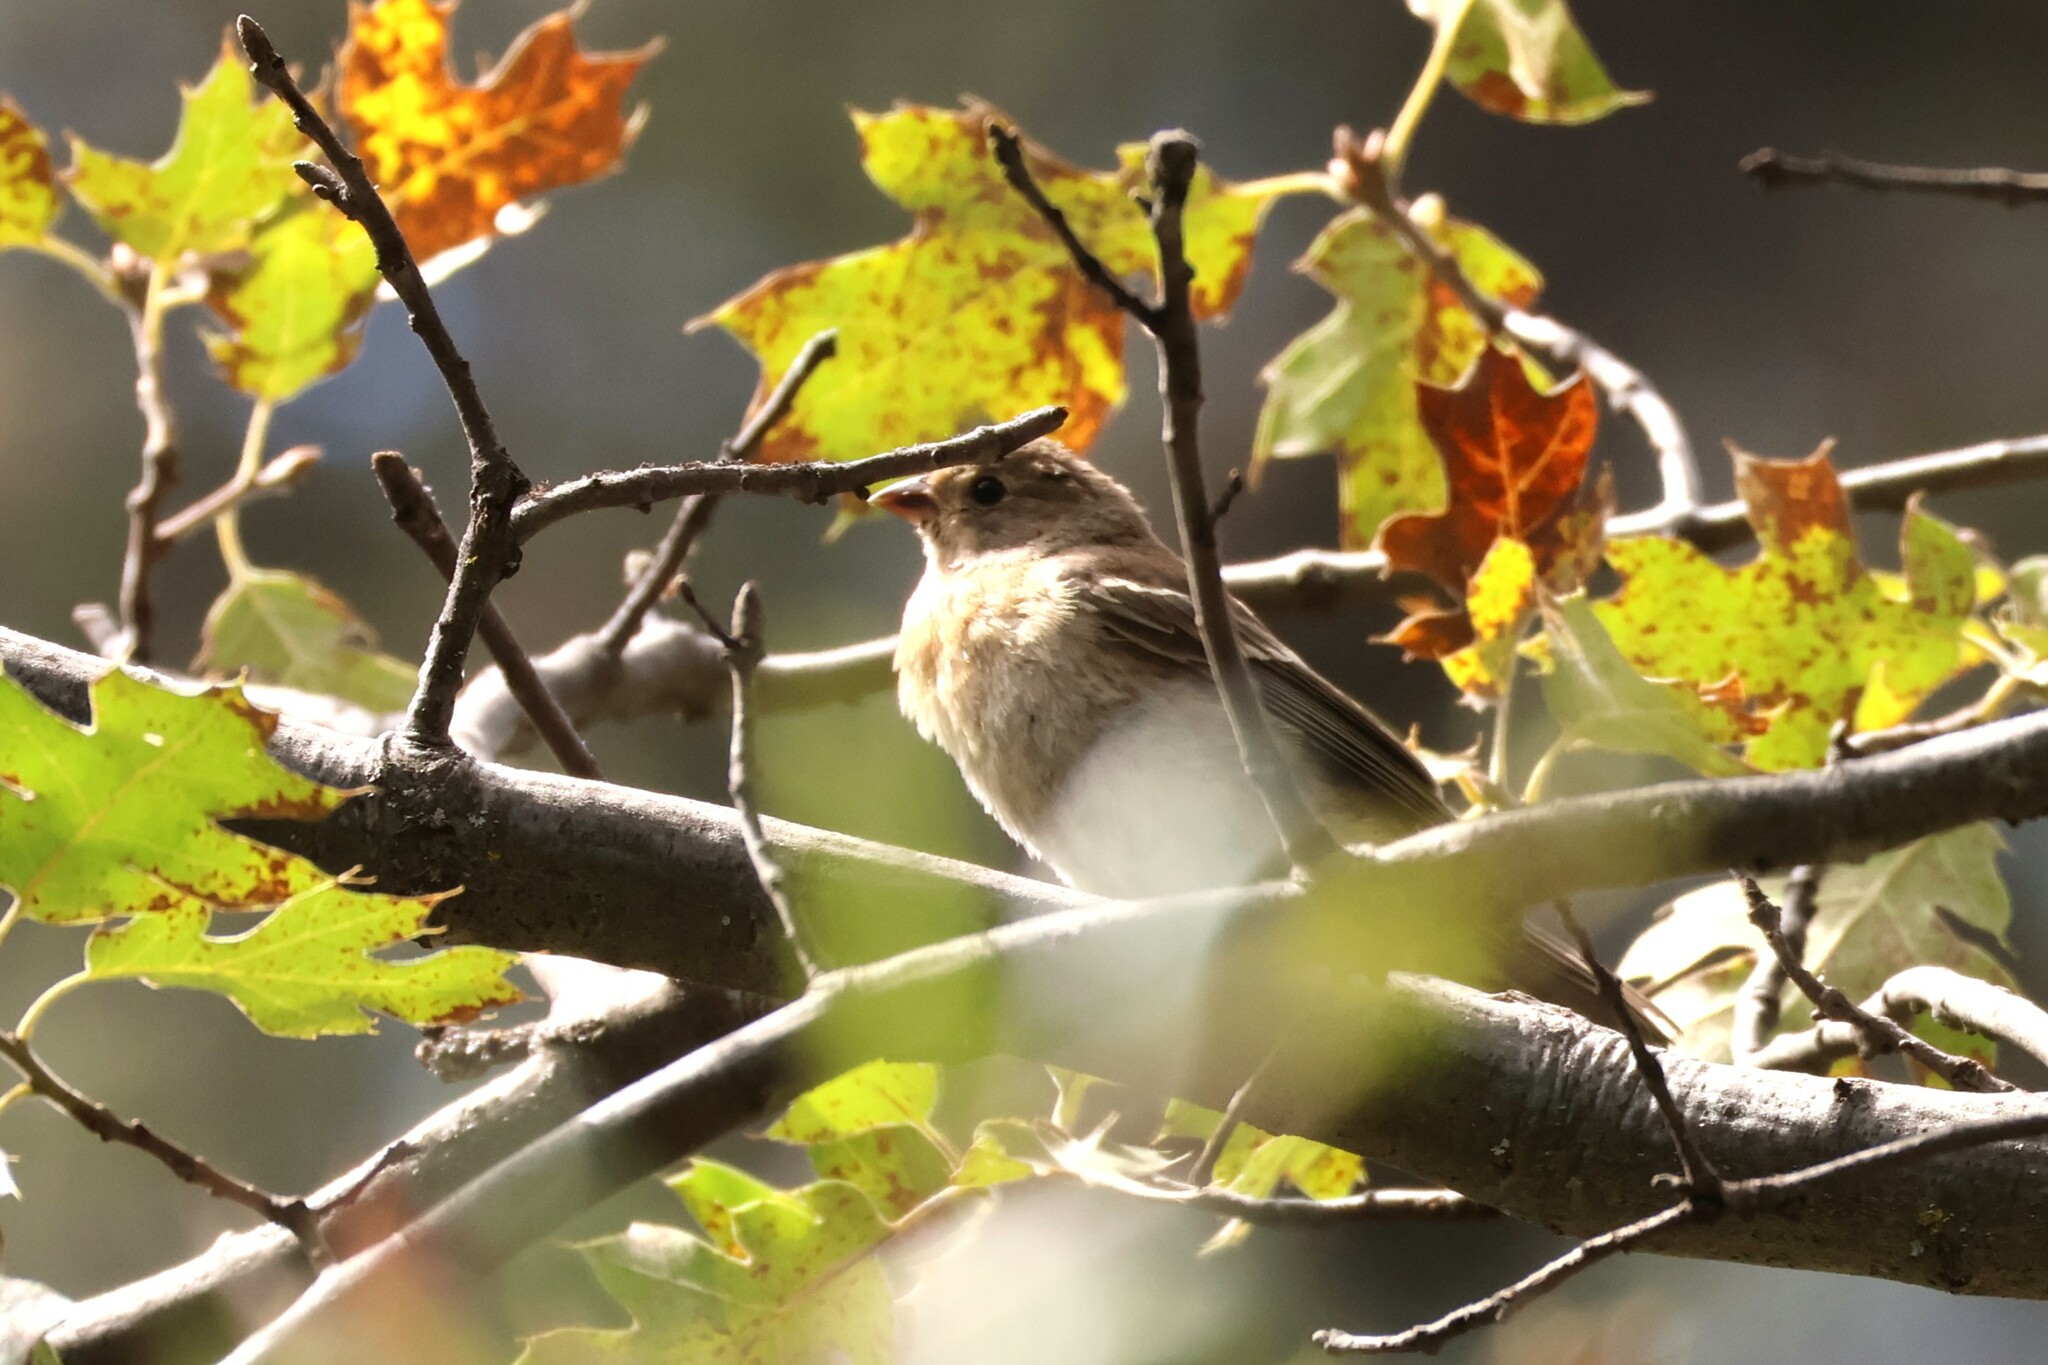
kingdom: Animalia
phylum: Chordata
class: Aves
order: Passeriformes
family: Cardinalidae
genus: Passerina
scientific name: Passerina amoena
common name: Lazuli bunting
